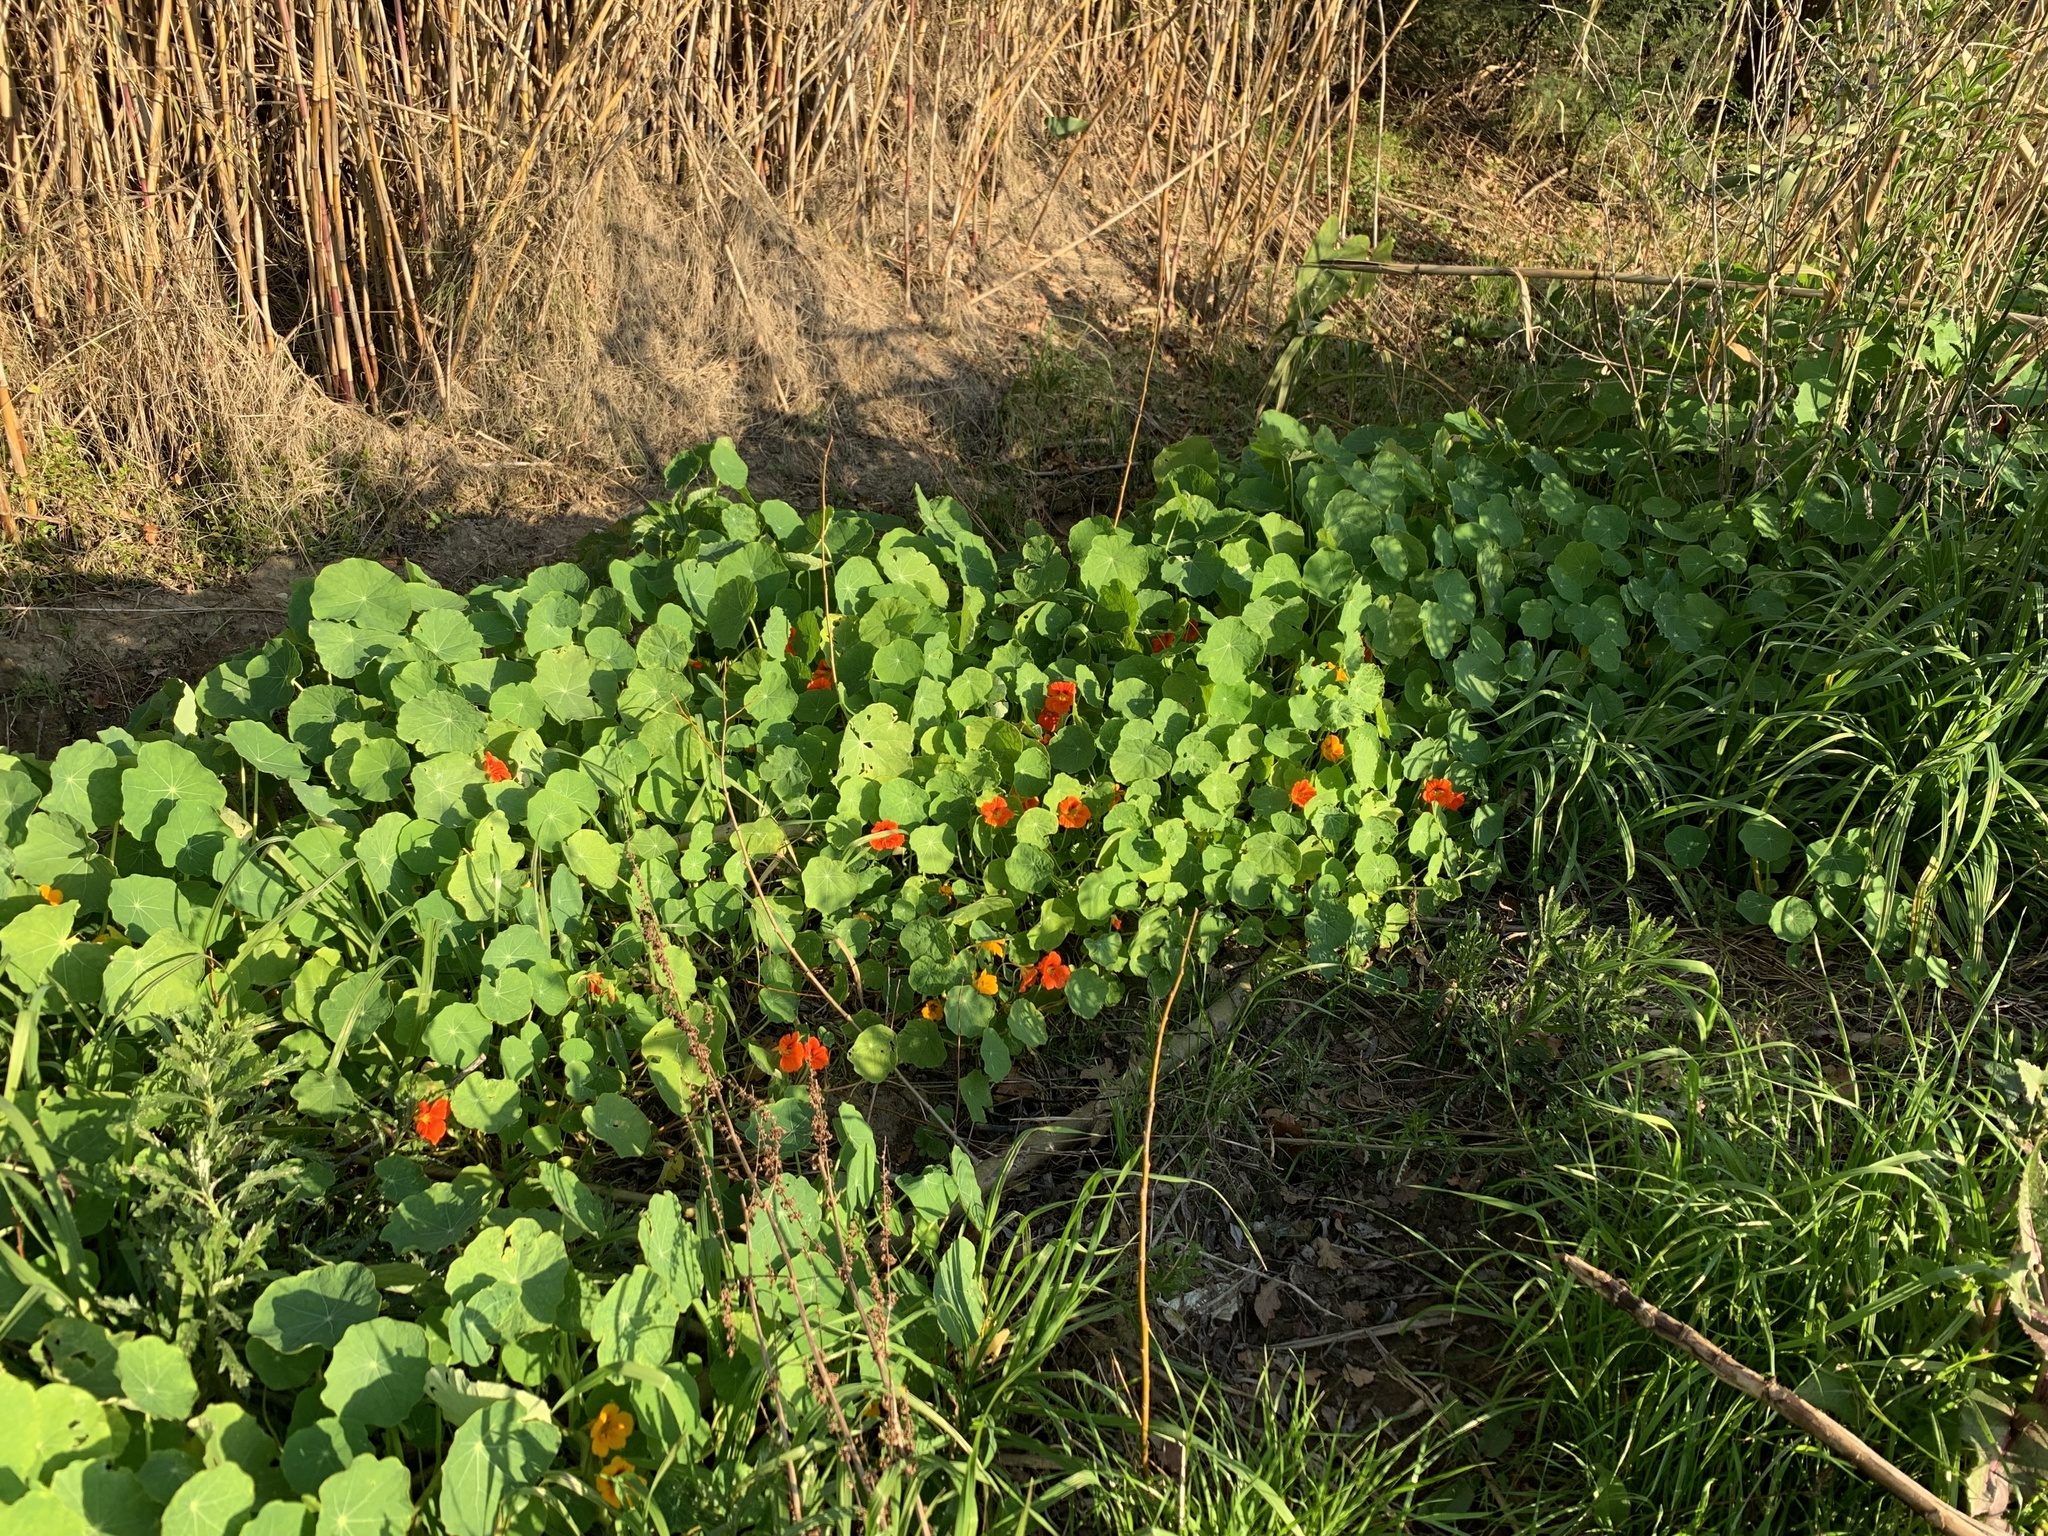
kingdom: Plantae
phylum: Tracheophyta
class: Magnoliopsida
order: Brassicales
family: Tropaeolaceae
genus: Tropaeolum
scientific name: Tropaeolum majus
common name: Nasturtium
